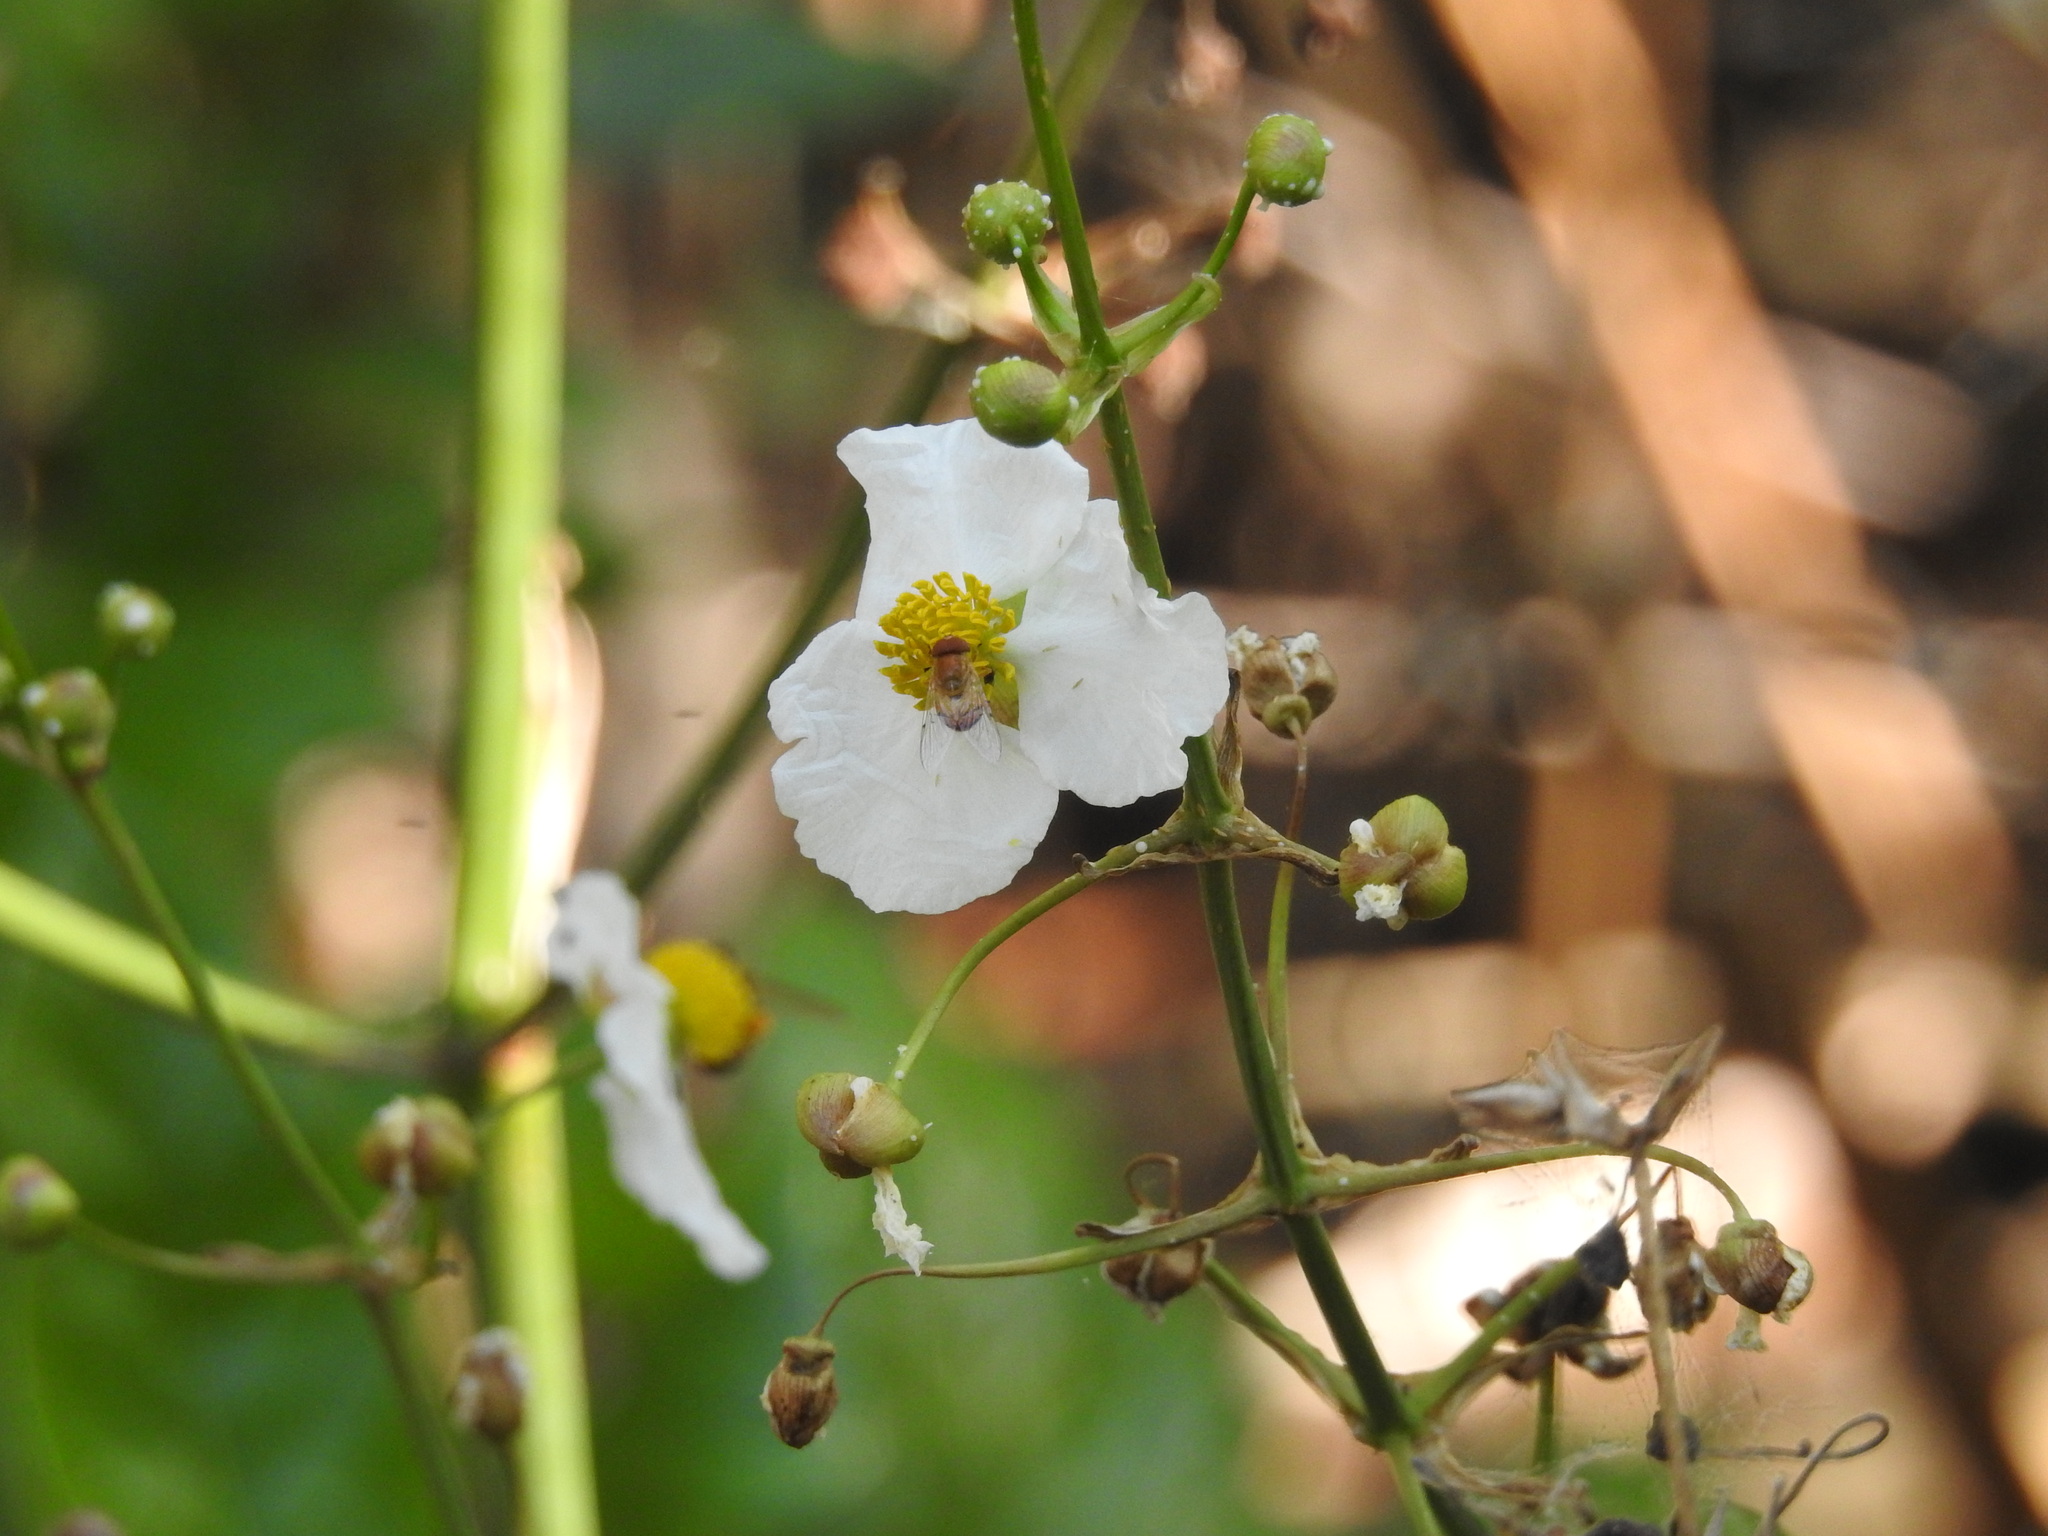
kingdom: Animalia
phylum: Arthropoda
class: Insecta
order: Diptera
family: Syrphidae
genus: Copestylum
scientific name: Copestylum sexmaculatum
